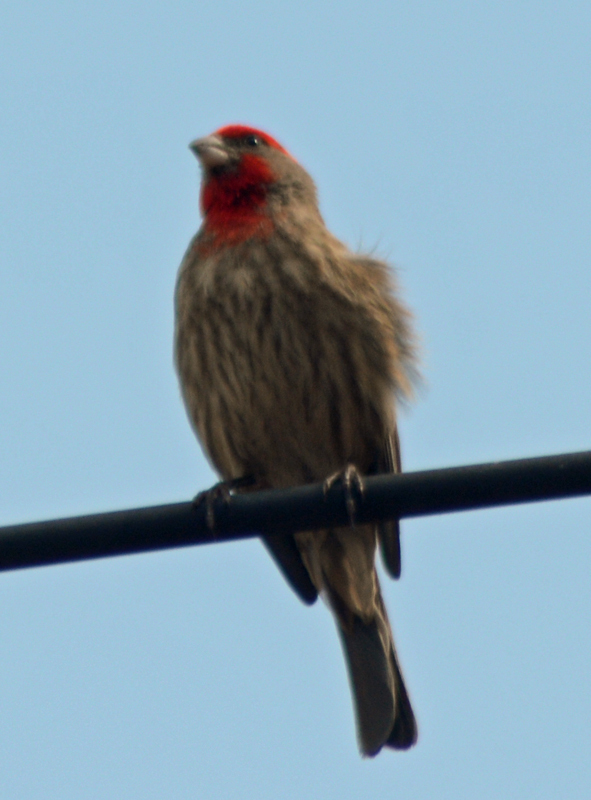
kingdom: Animalia
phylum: Chordata
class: Aves
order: Passeriformes
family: Fringillidae
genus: Haemorhous
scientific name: Haemorhous mexicanus
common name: House finch
